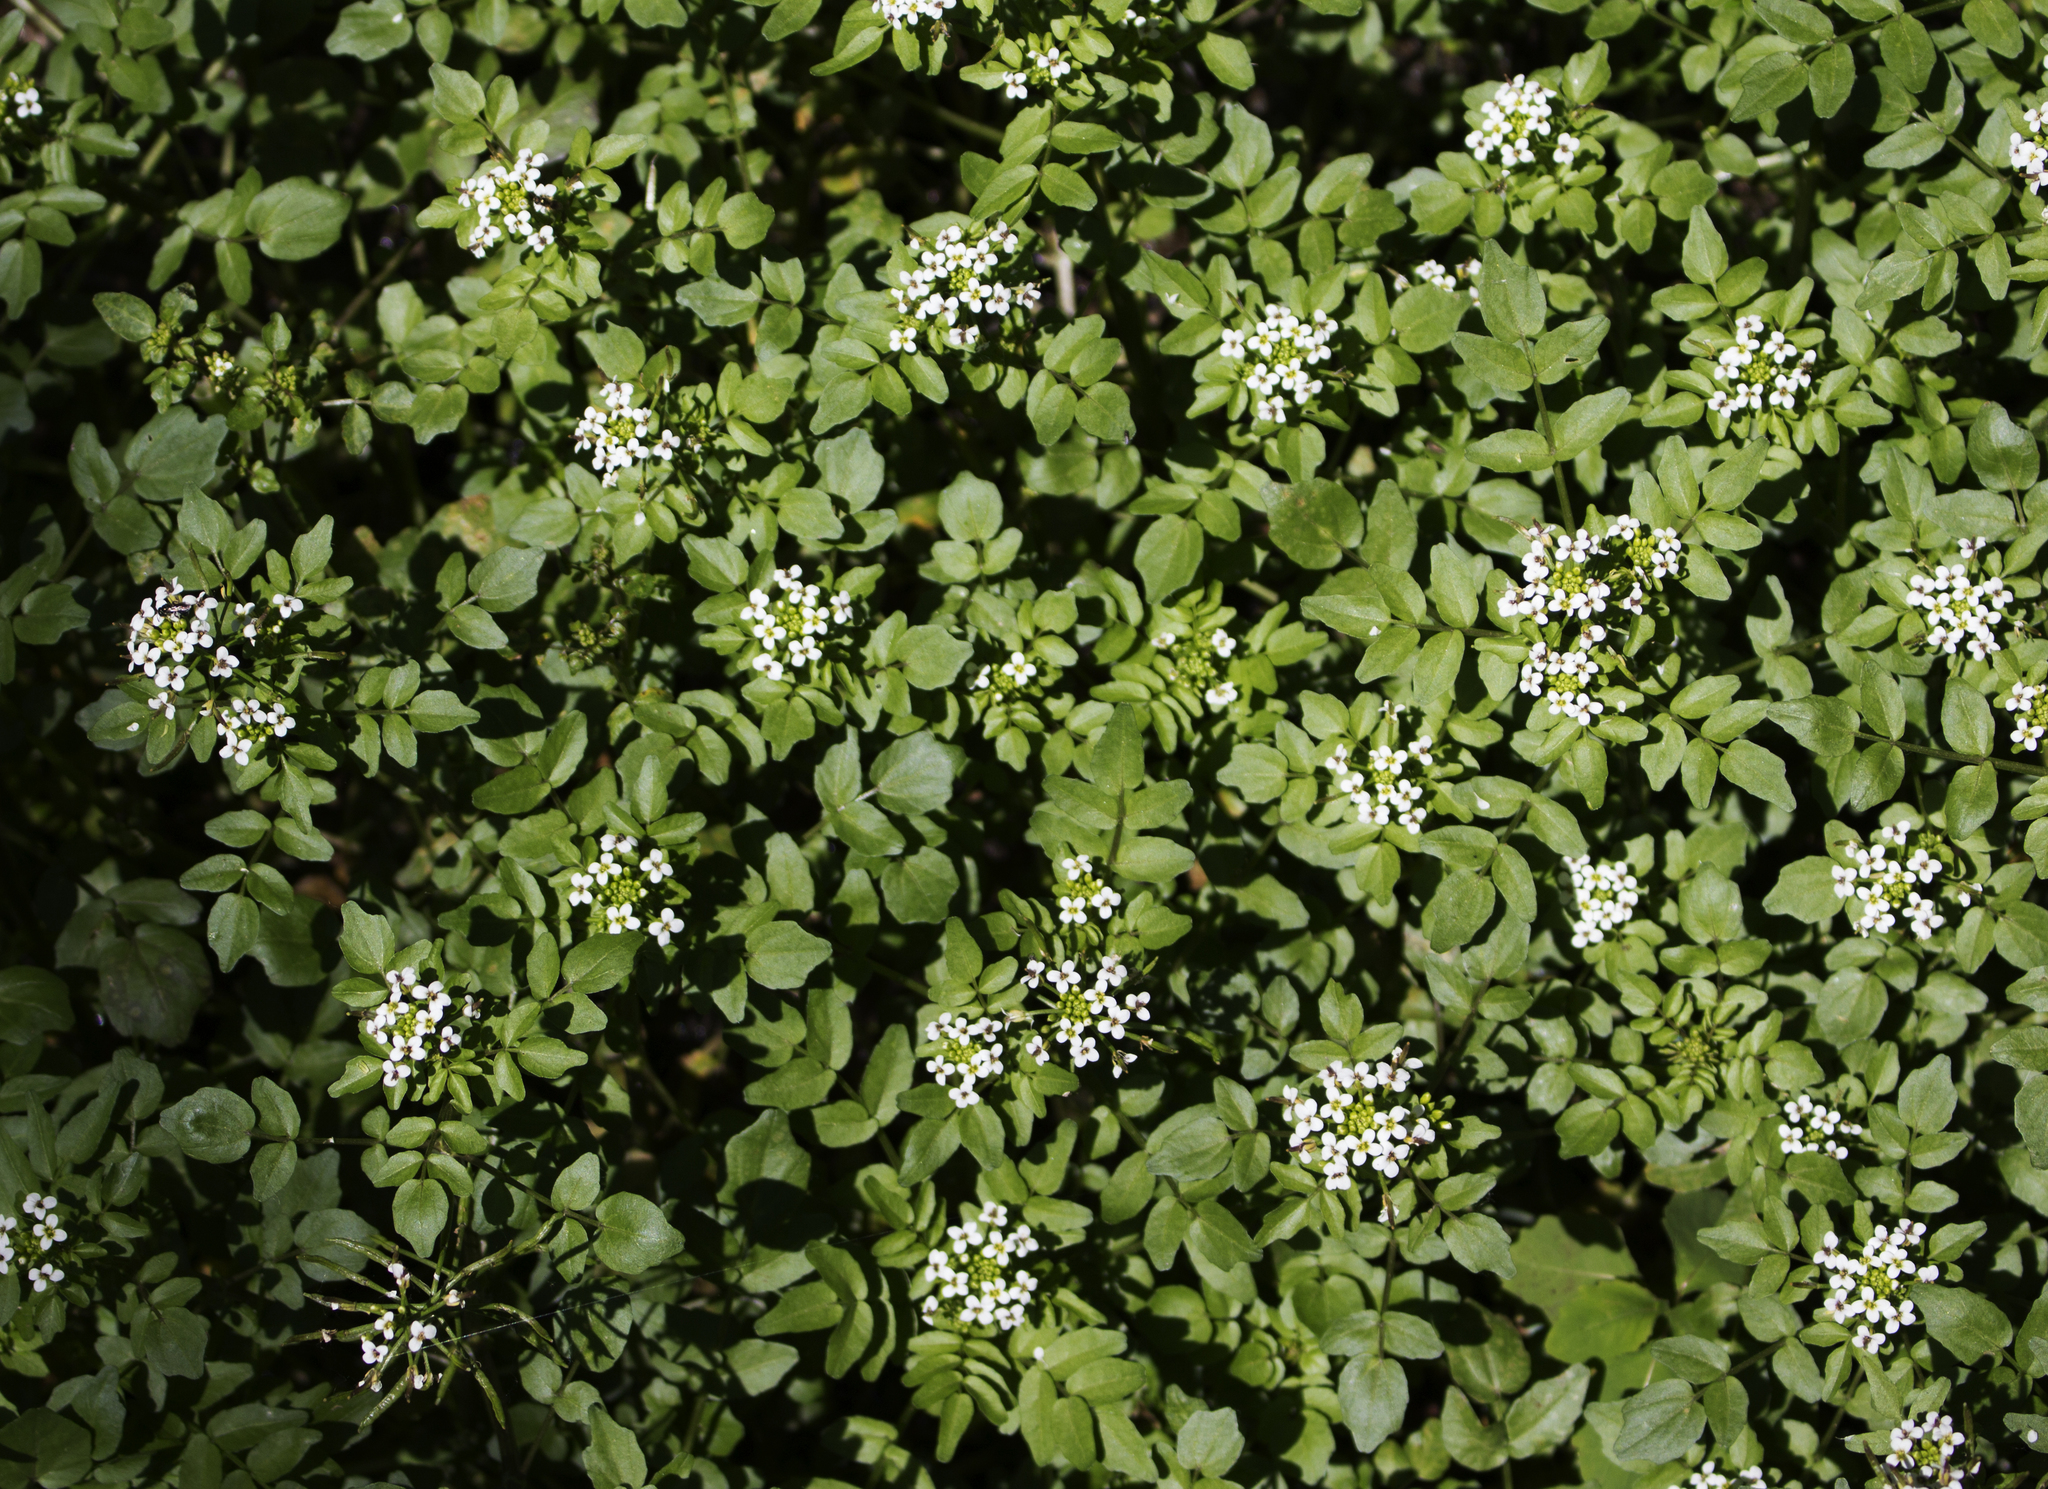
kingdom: Plantae
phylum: Tracheophyta
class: Magnoliopsida
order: Brassicales
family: Brassicaceae
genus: Nasturtium
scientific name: Nasturtium officinale
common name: Watercress
